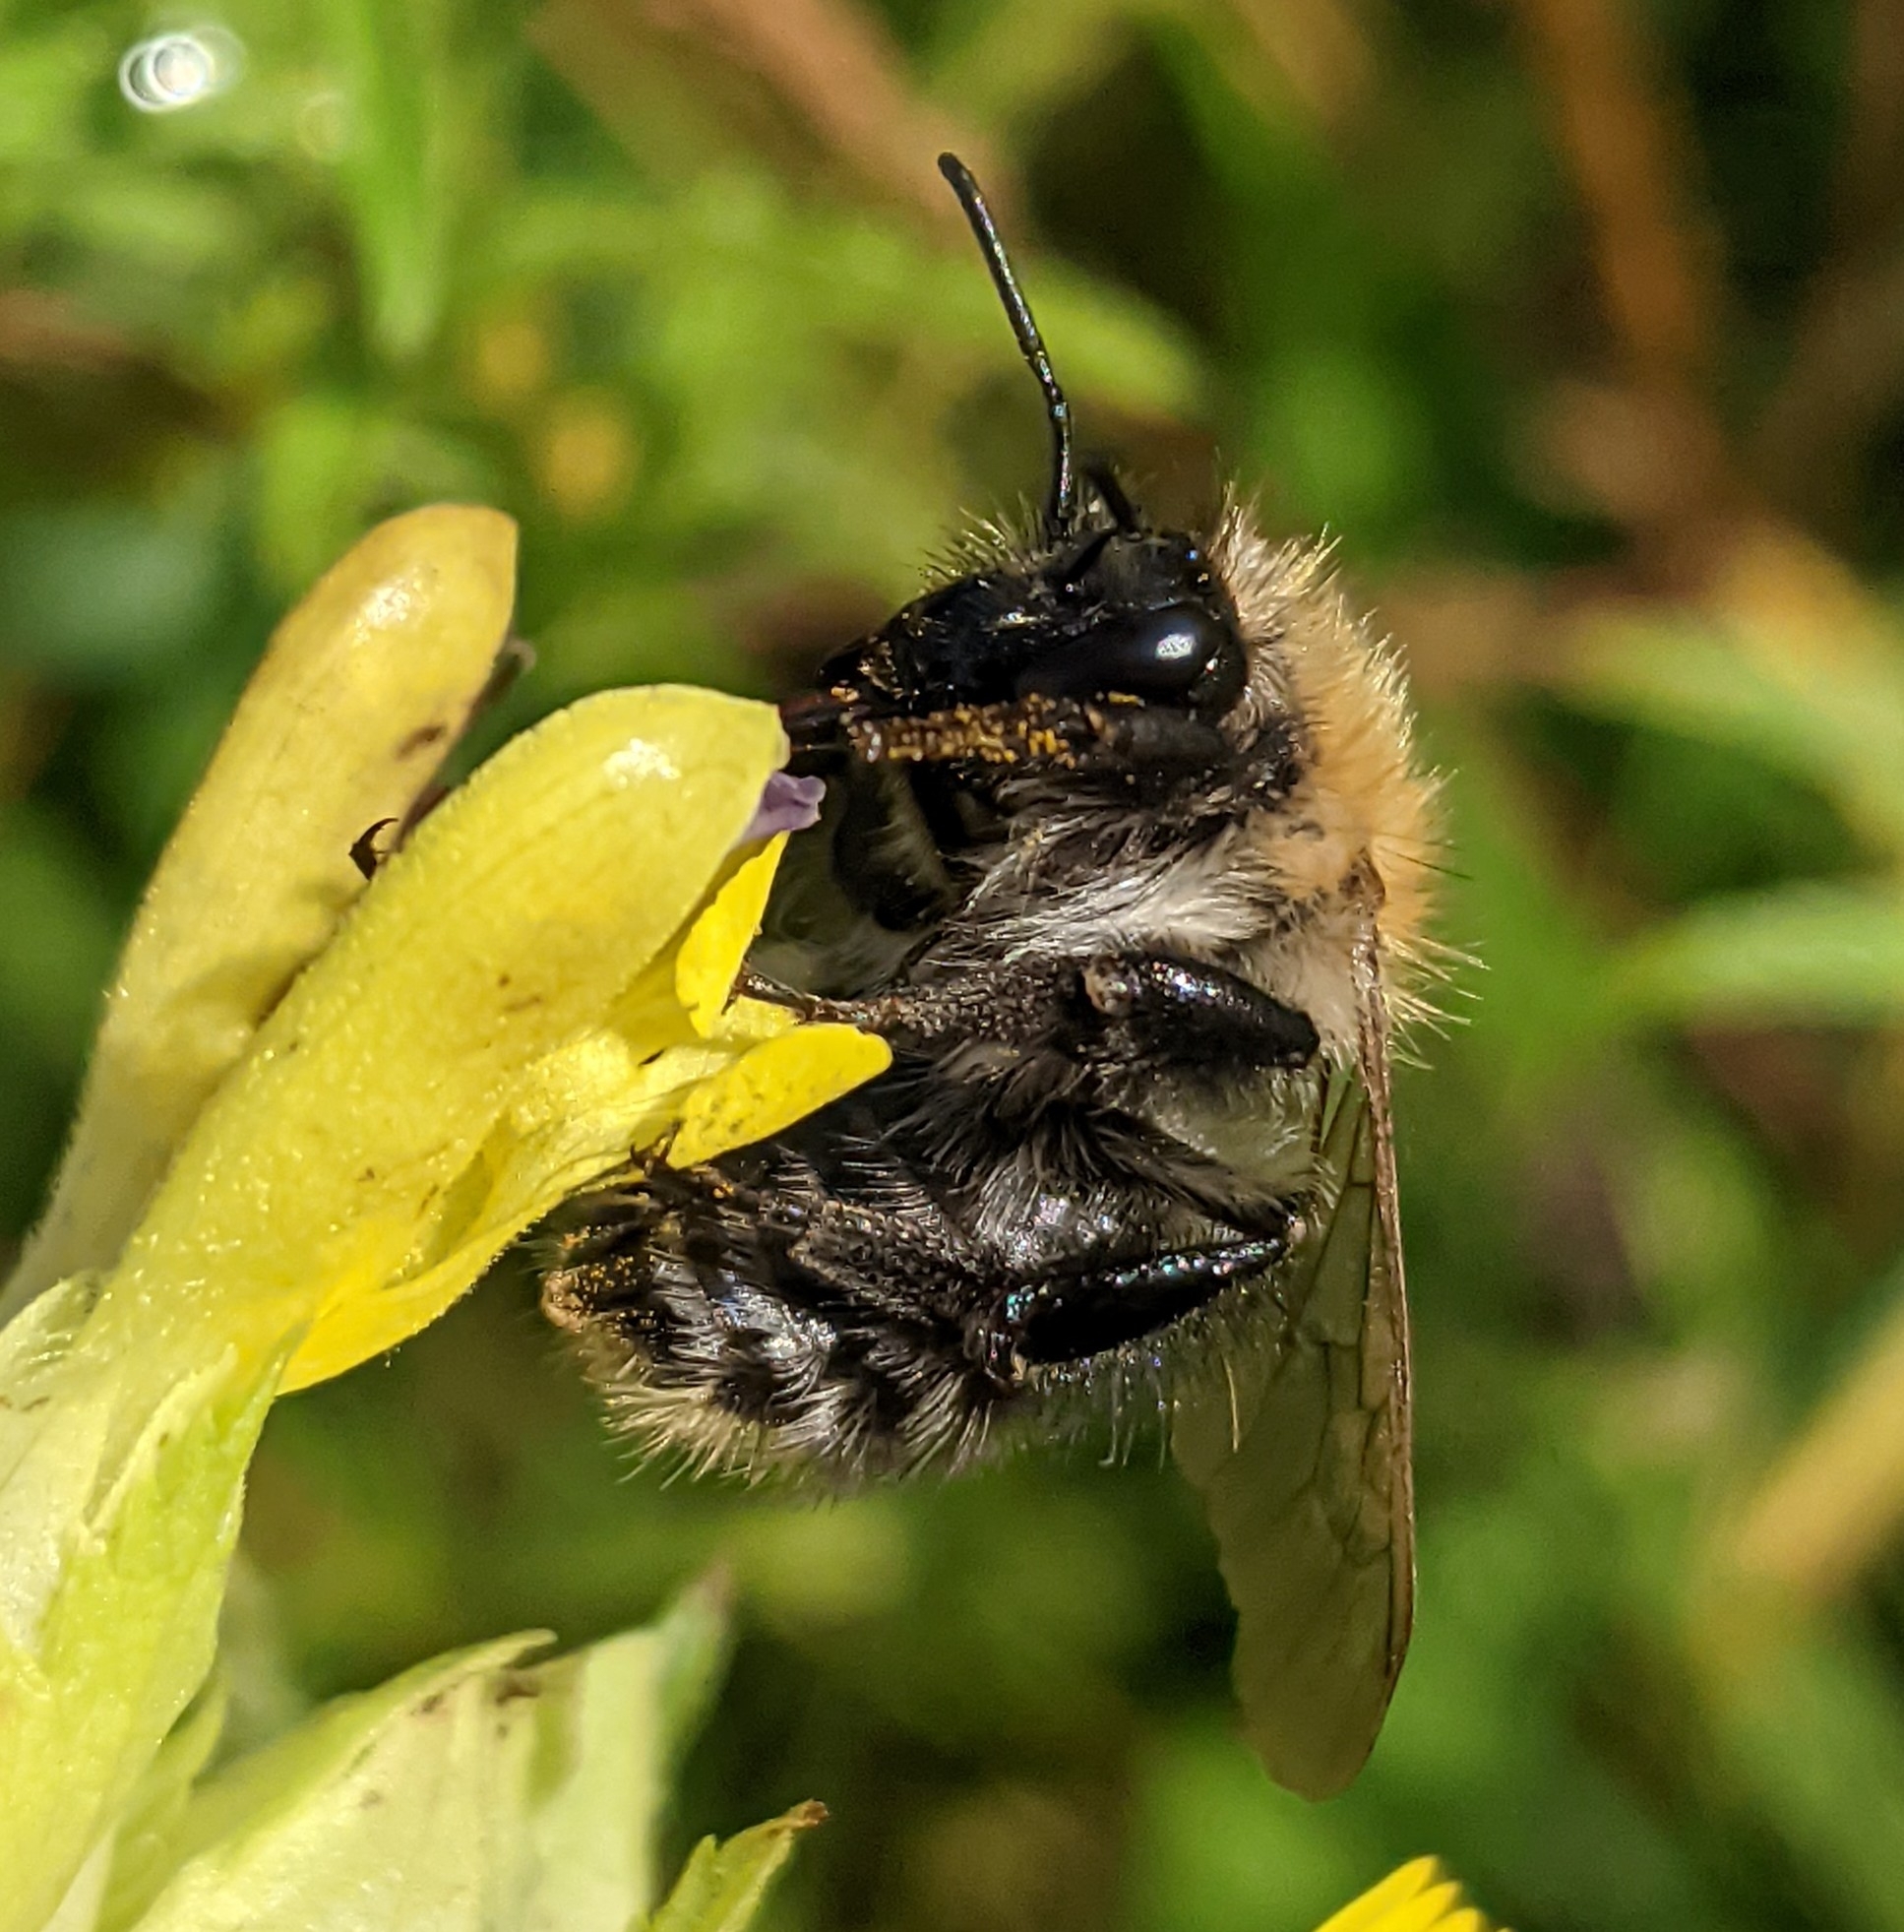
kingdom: Animalia
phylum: Arthropoda
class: Insecta
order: Hymenoptera
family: Apidae
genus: Bombus
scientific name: Bombus pascuorum
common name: Common carder bee
